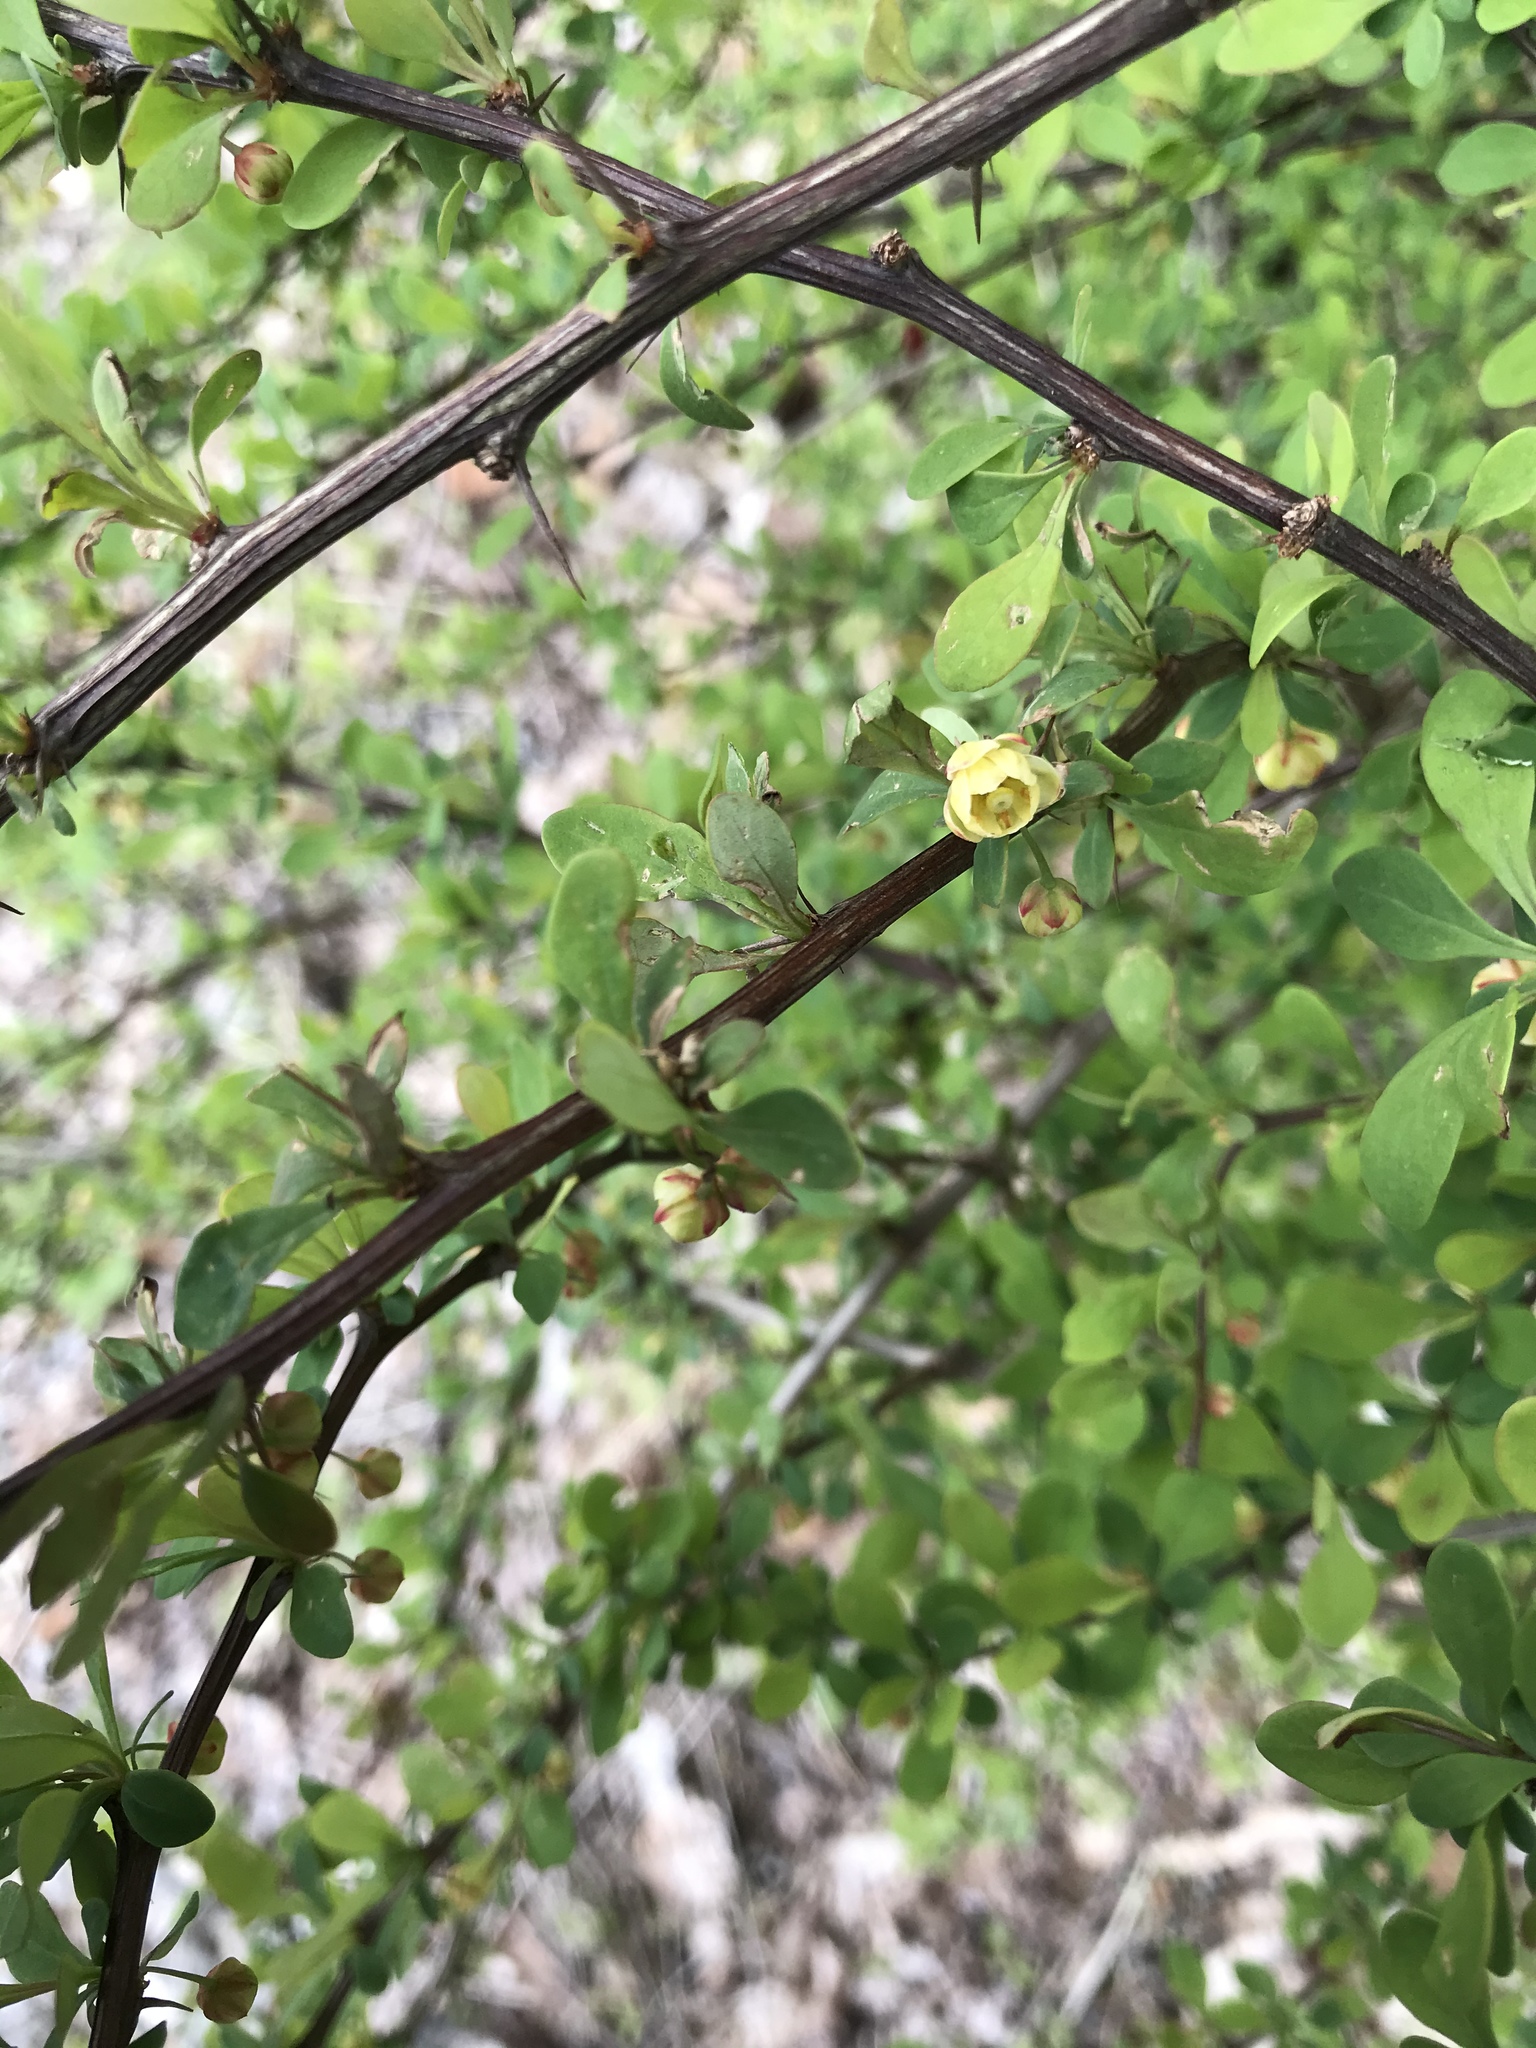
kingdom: Plantae
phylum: Tracheophyta
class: Magnoliopsida
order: Ranunculales
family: Berberidaceae
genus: Berberis
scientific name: Berberis thunbergii
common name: Japanese barberry
